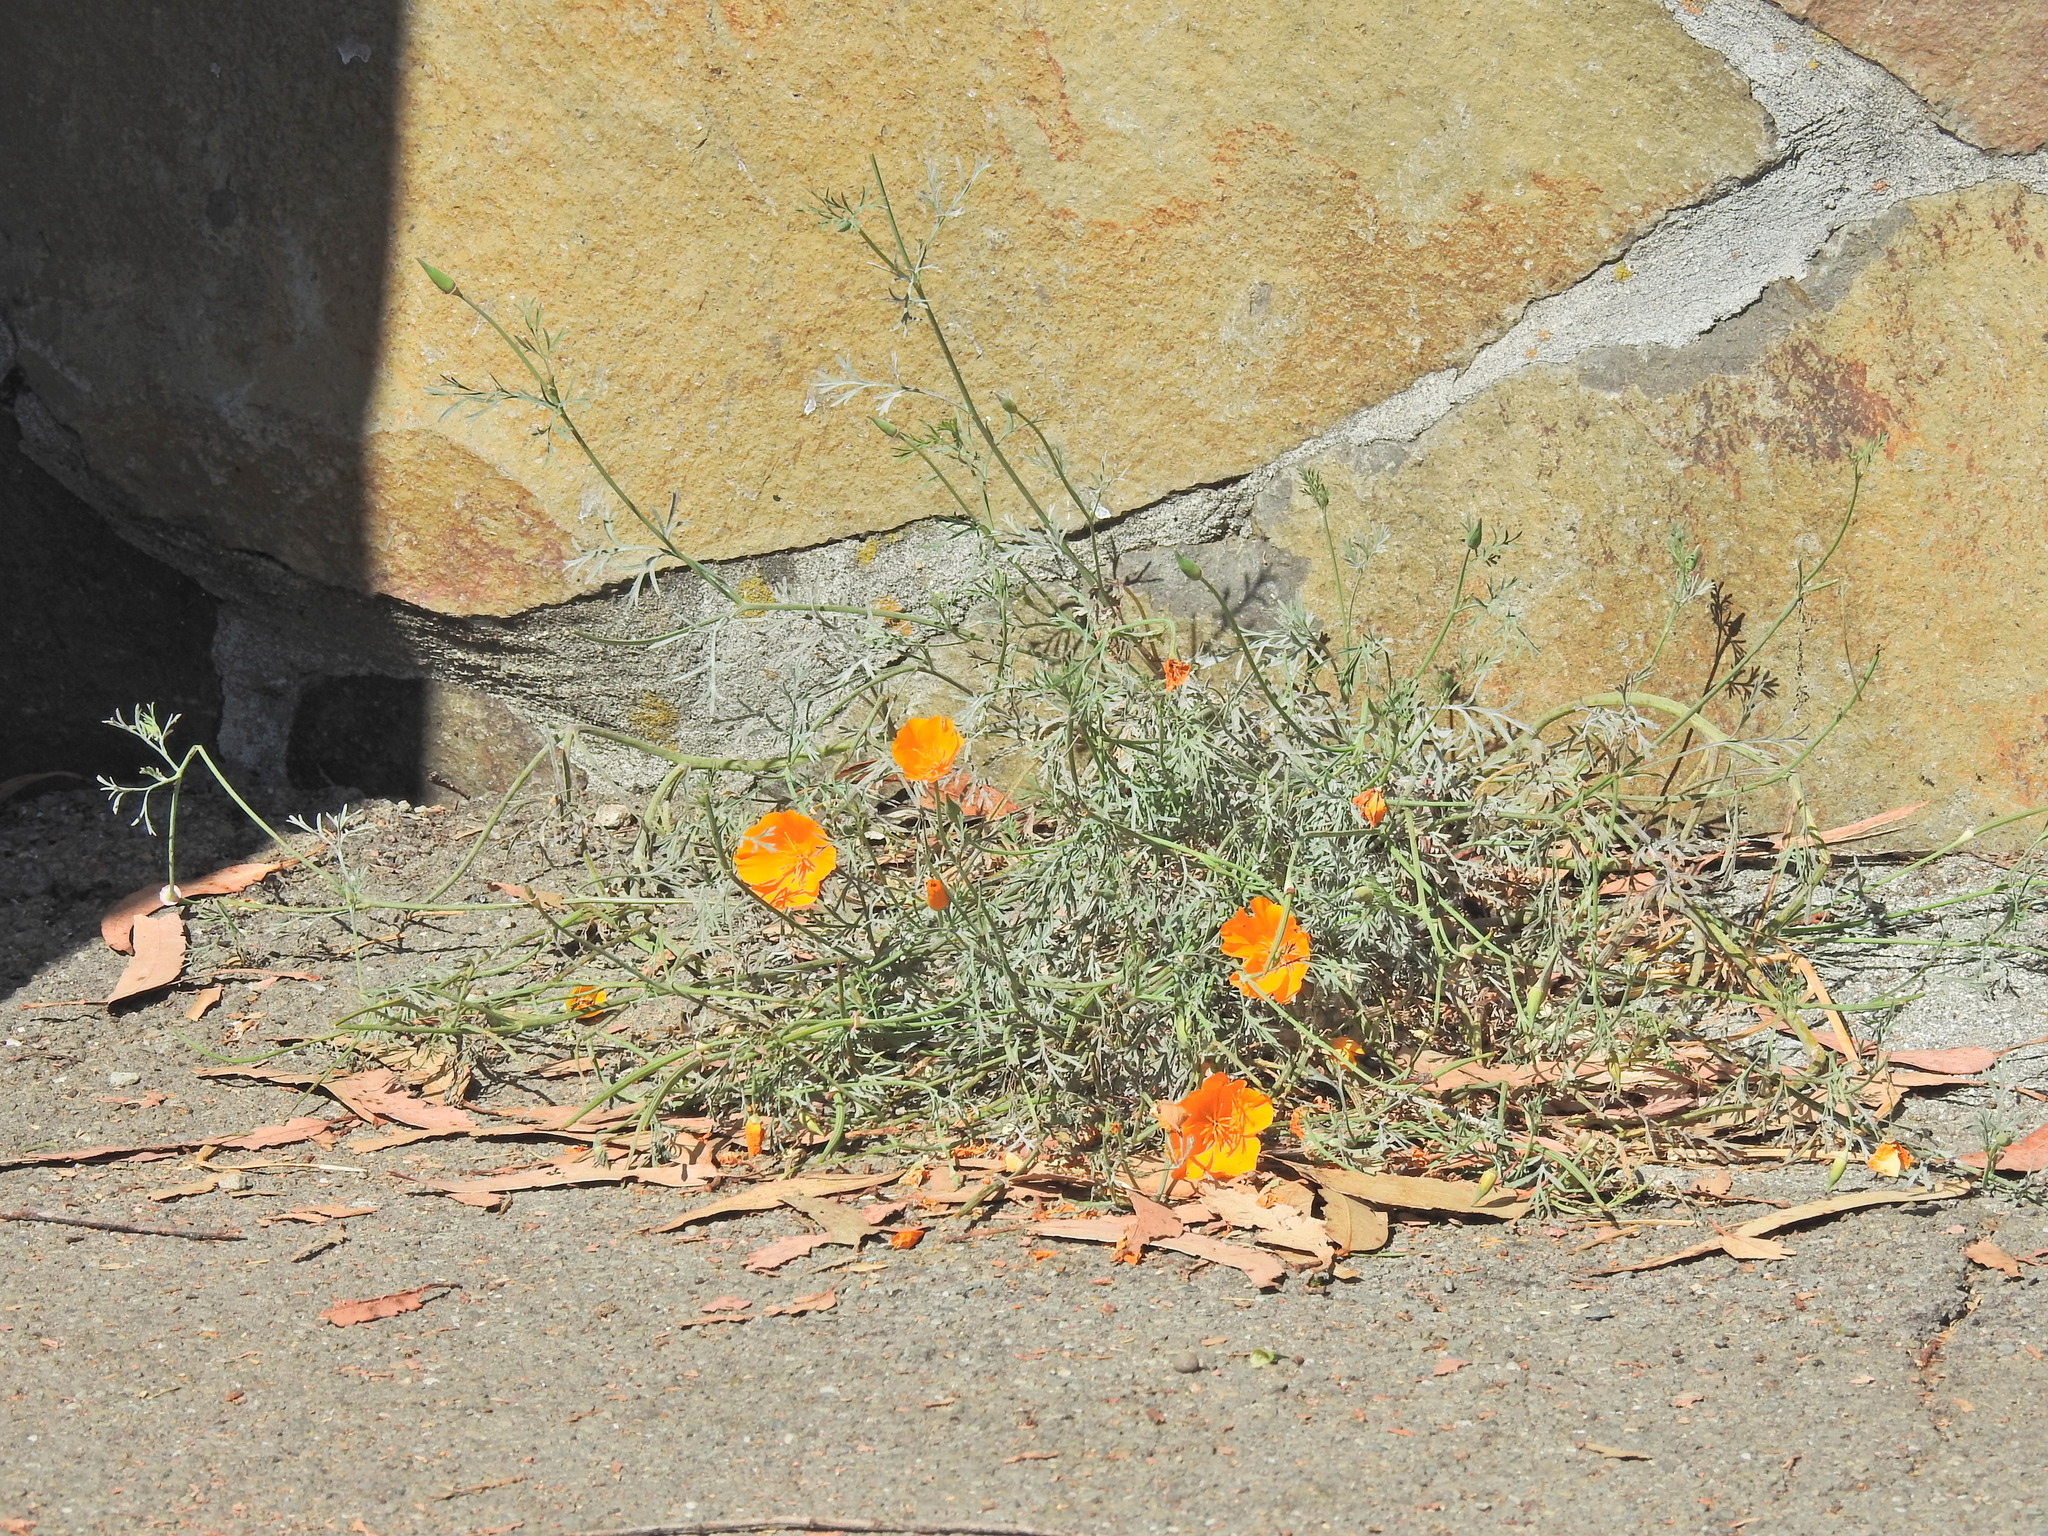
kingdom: Plantae
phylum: Tracheophyta
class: Magnoliopsida
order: Ranunculales
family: Papaveraceae
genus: Eschscholzia
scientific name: Eschscholzia californica
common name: California poppy
